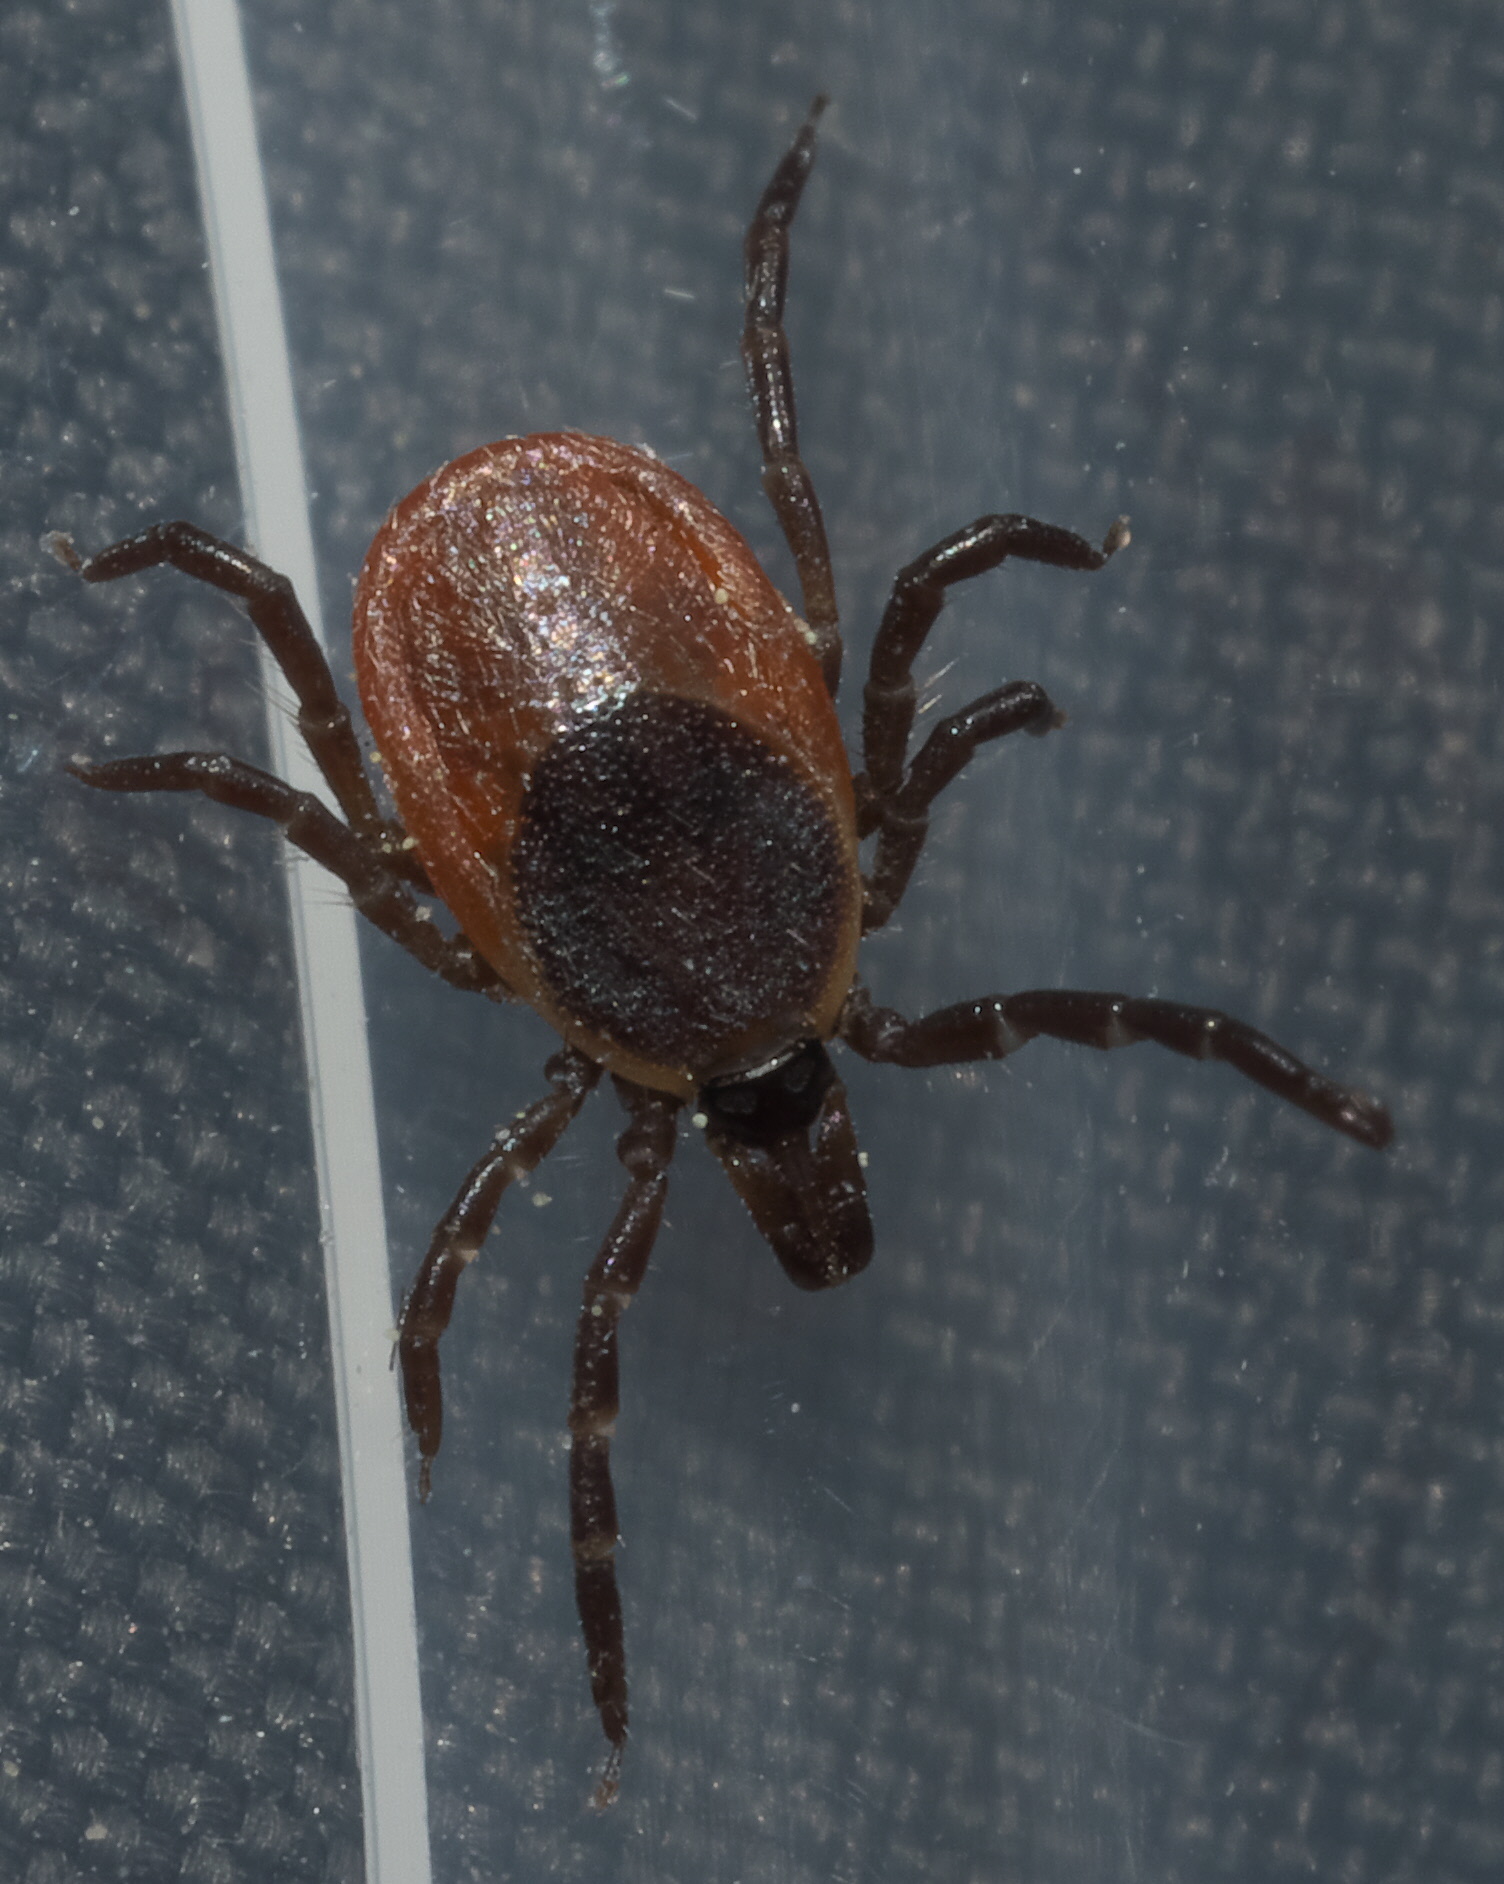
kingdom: Animalia
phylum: Arthropoda
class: Arachnida
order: Ixodida
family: Ixodidae
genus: Ixodes
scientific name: Ixodes scapularis
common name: Black legged tick
